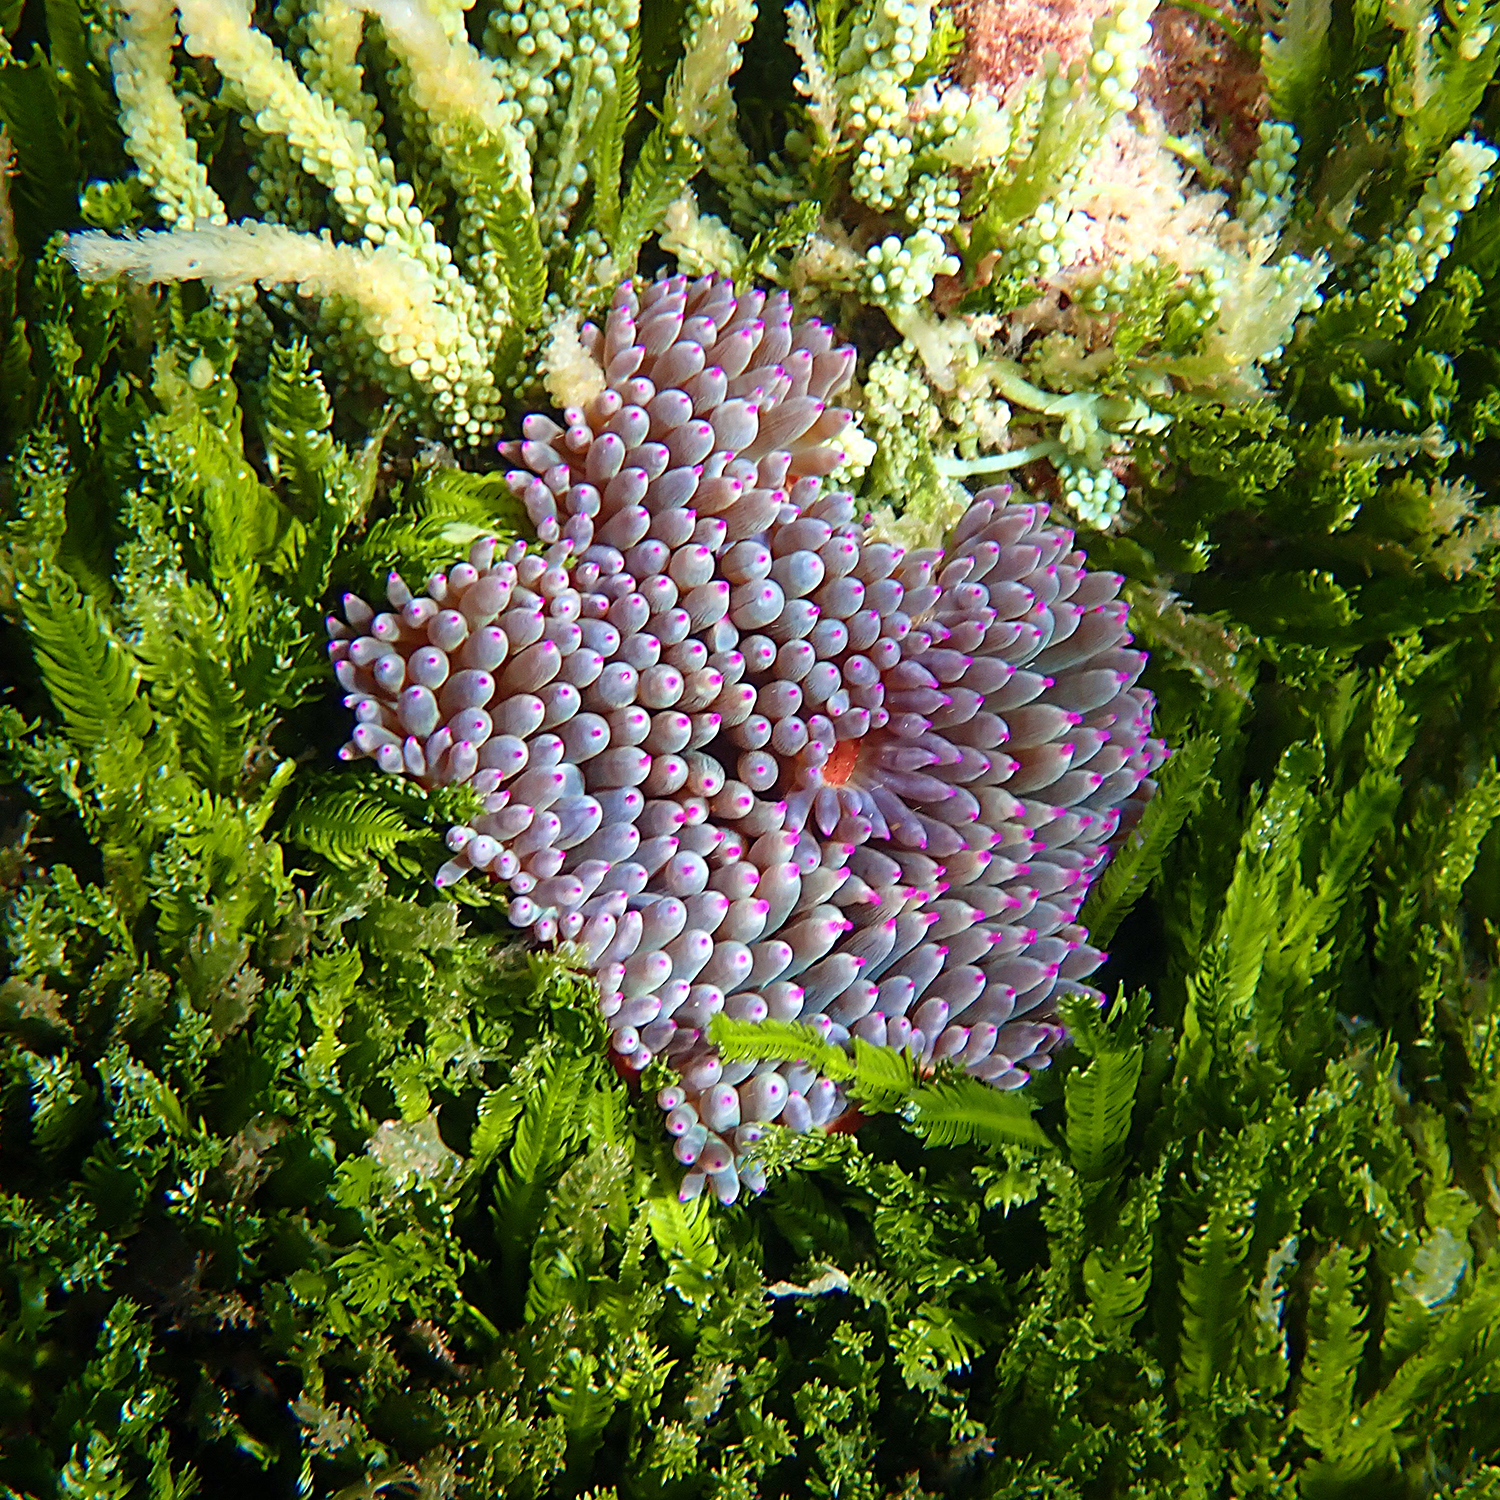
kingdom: Animalia
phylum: Cnidaria
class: Anthozoa
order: Actiniaria
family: Actiniidae
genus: Entacmaea
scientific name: Entacmaea quadricolor
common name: Bulb tentacle sea anemone
